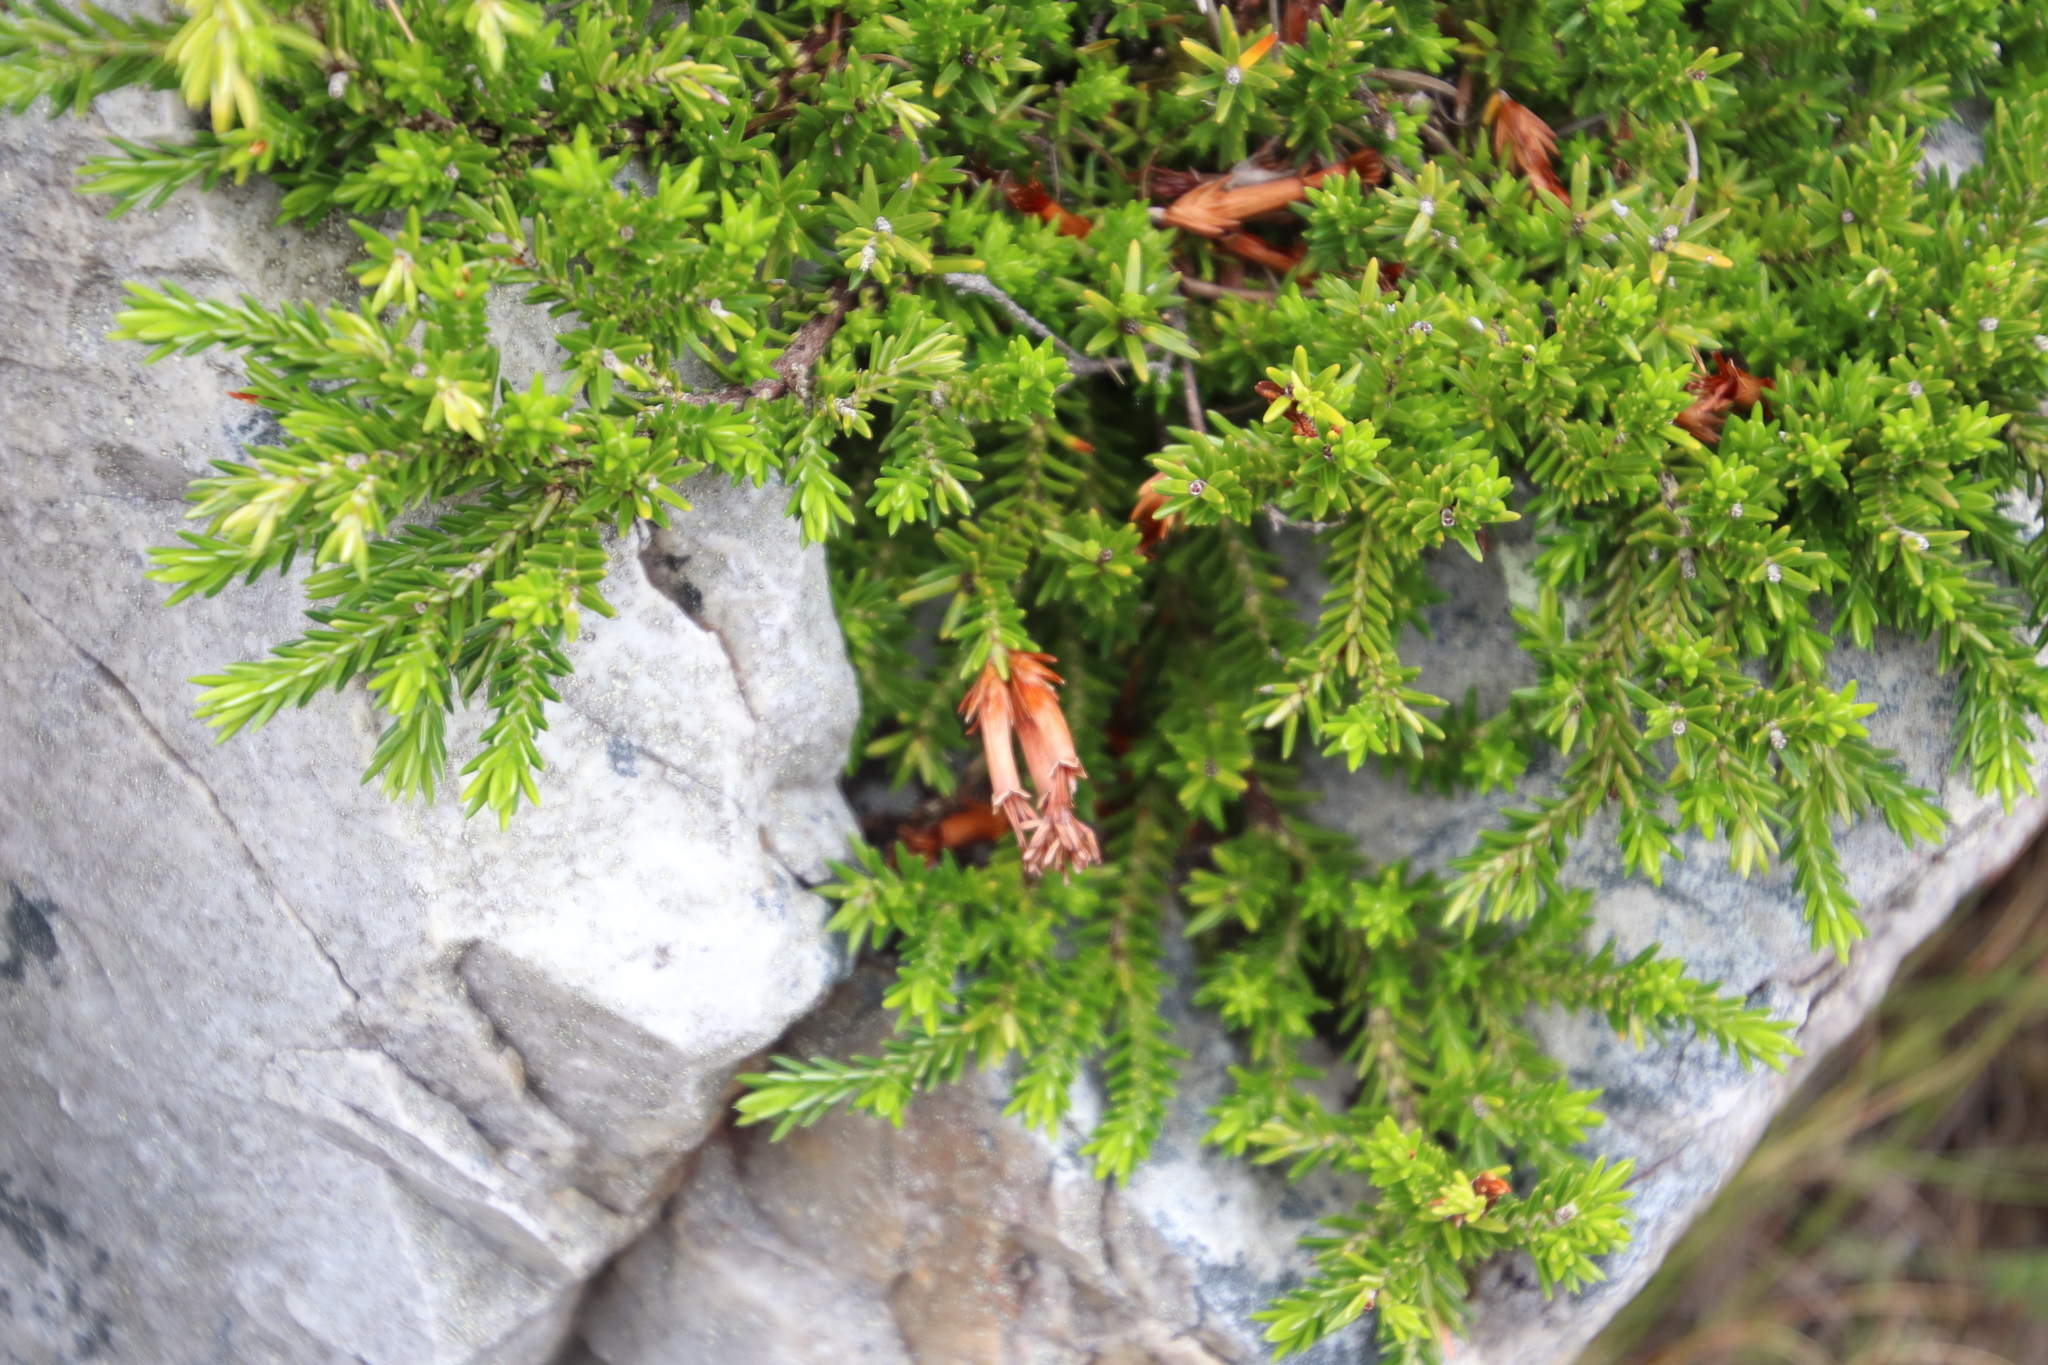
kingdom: Plantae
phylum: Tracheophyta
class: Magnoliopsida
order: Ericales
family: Ericaceae
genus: Erica
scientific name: Erica banksia
